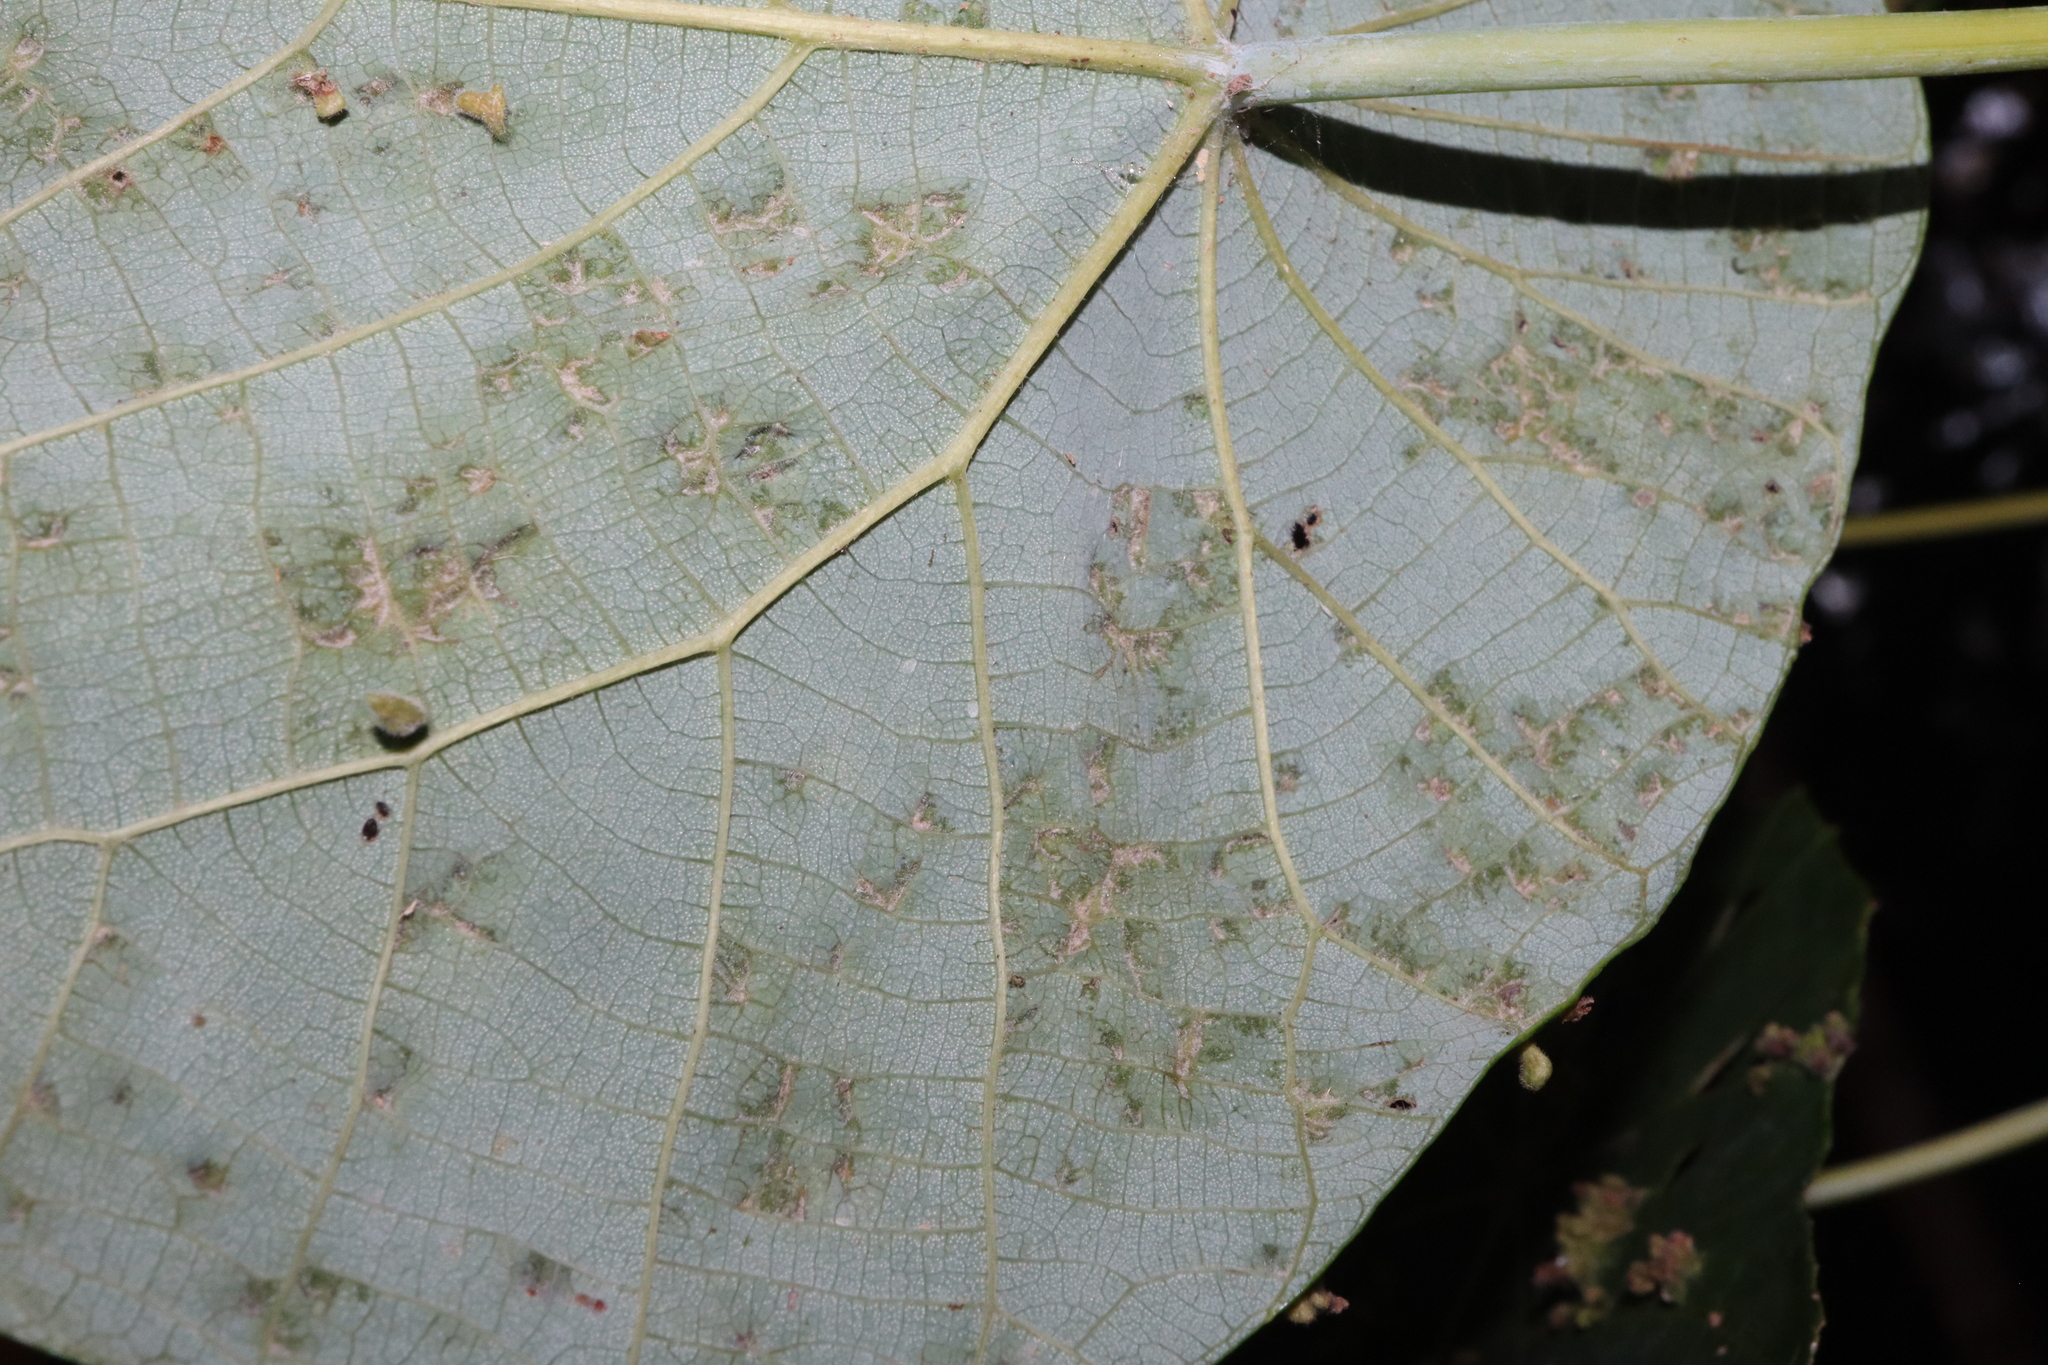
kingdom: Plantae
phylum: Tracheophyta
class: Magnoliopsida
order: Malpighiales
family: Euphorbiaceae
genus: Macaranga
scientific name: Macaranga tanarius
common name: Parasol leaf tree
